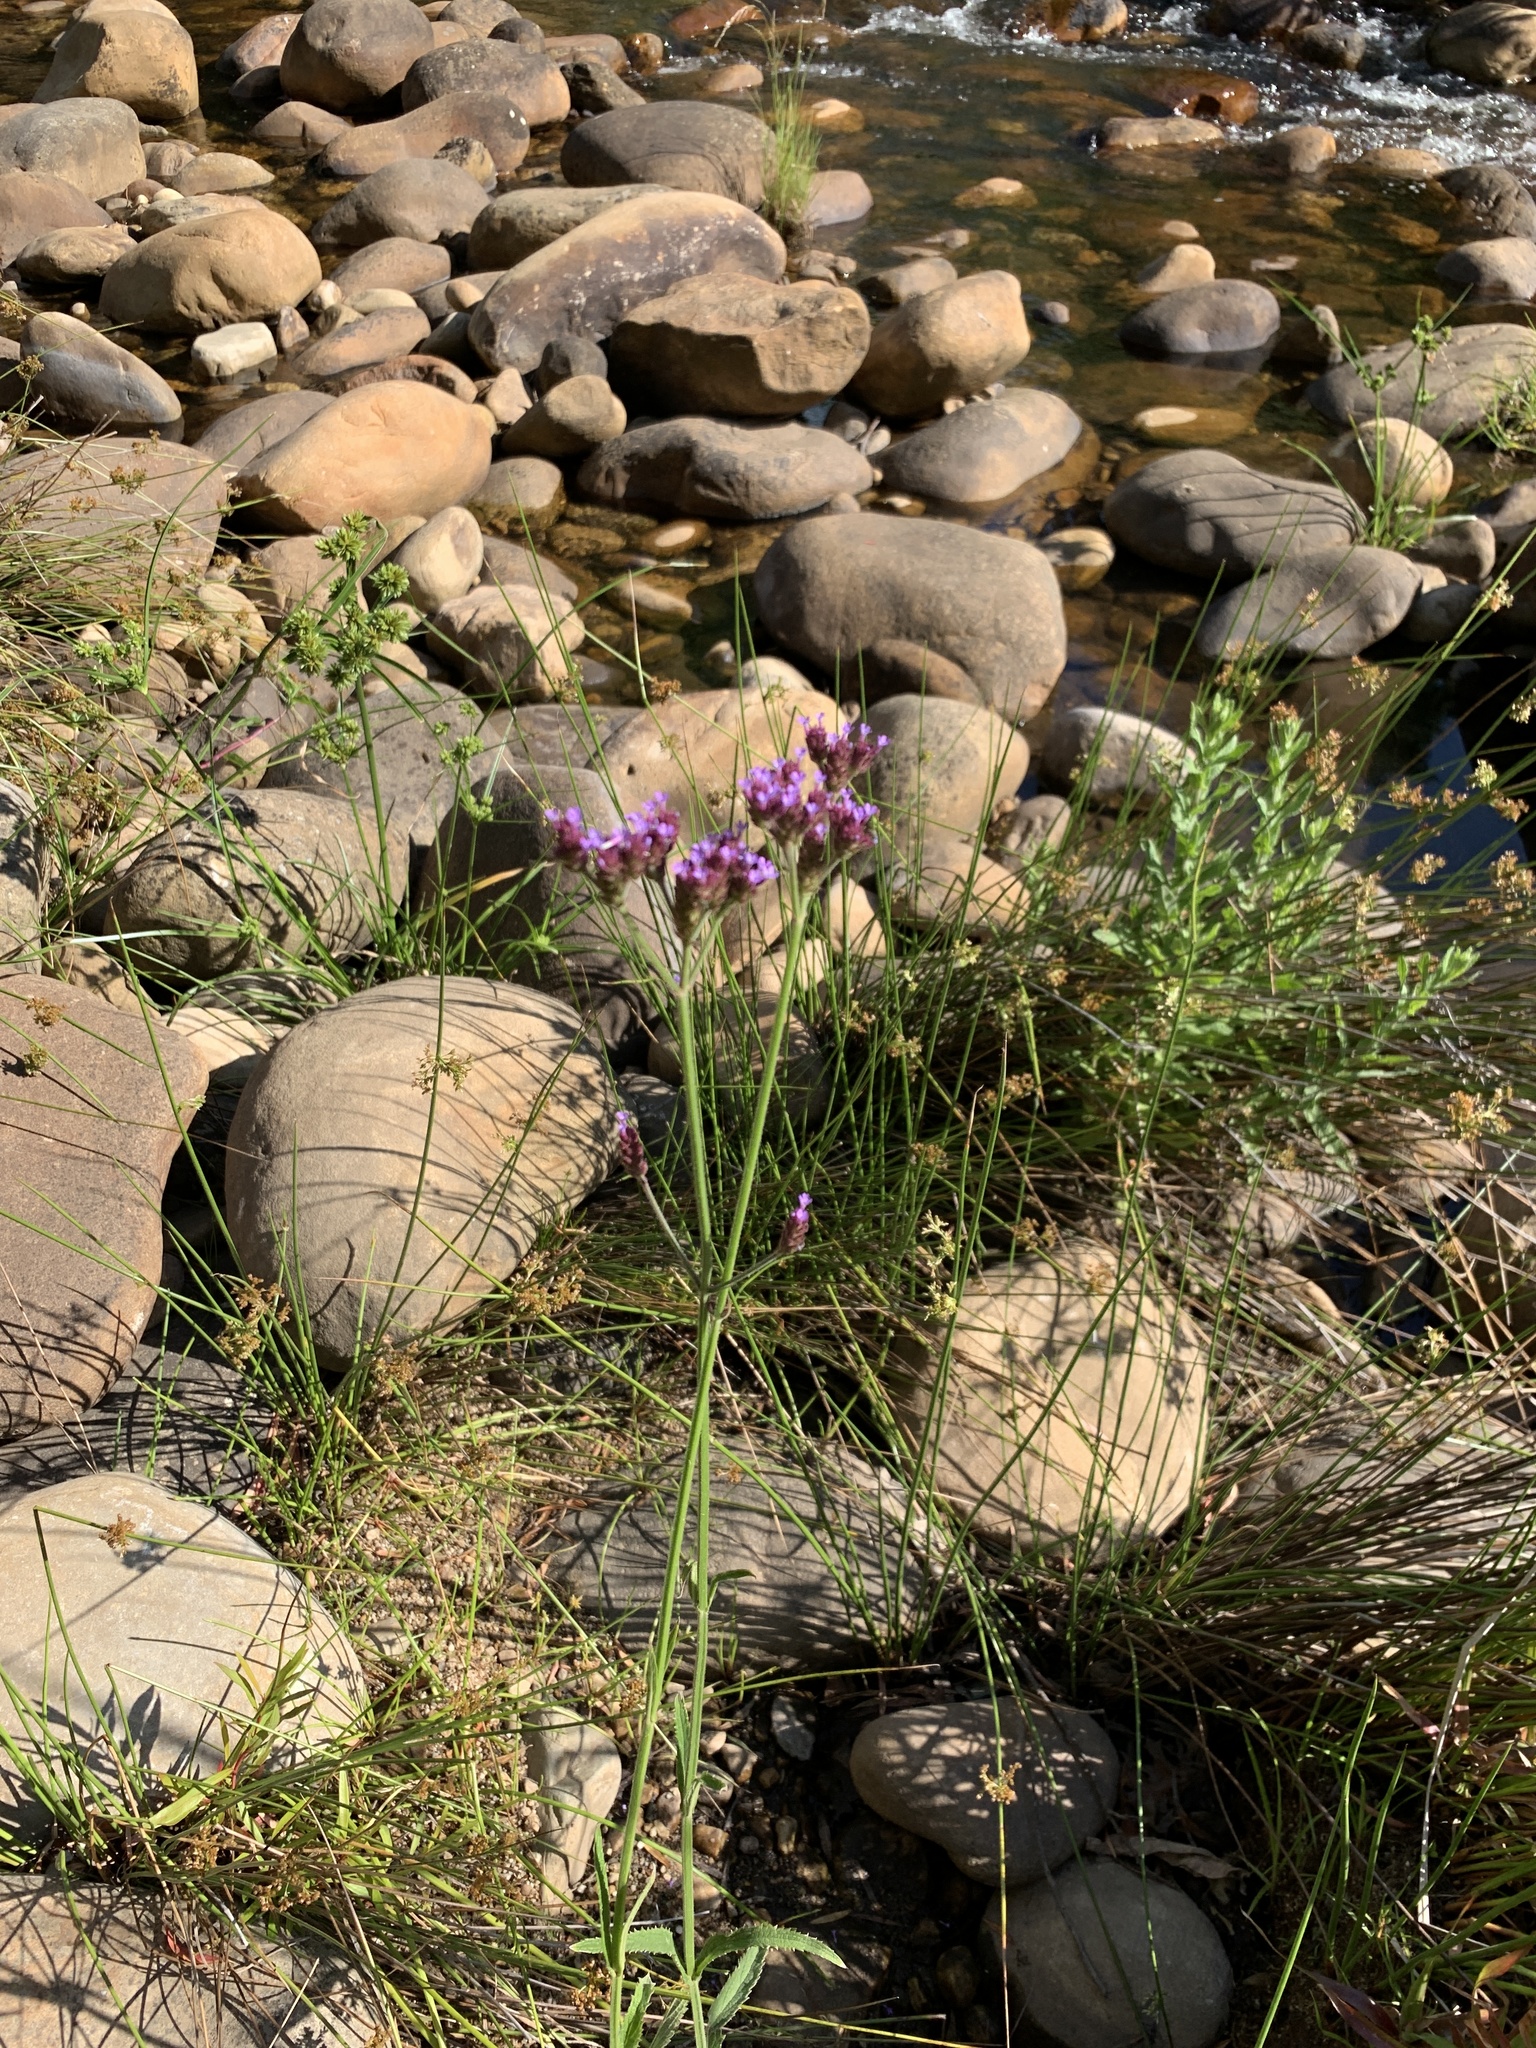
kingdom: Plantae
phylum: Tracheophyta
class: Magnoliopsida
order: Lamiales
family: Verbenaceae
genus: Verbena
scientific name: Verbena bonariensis
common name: Purpletop vervain
